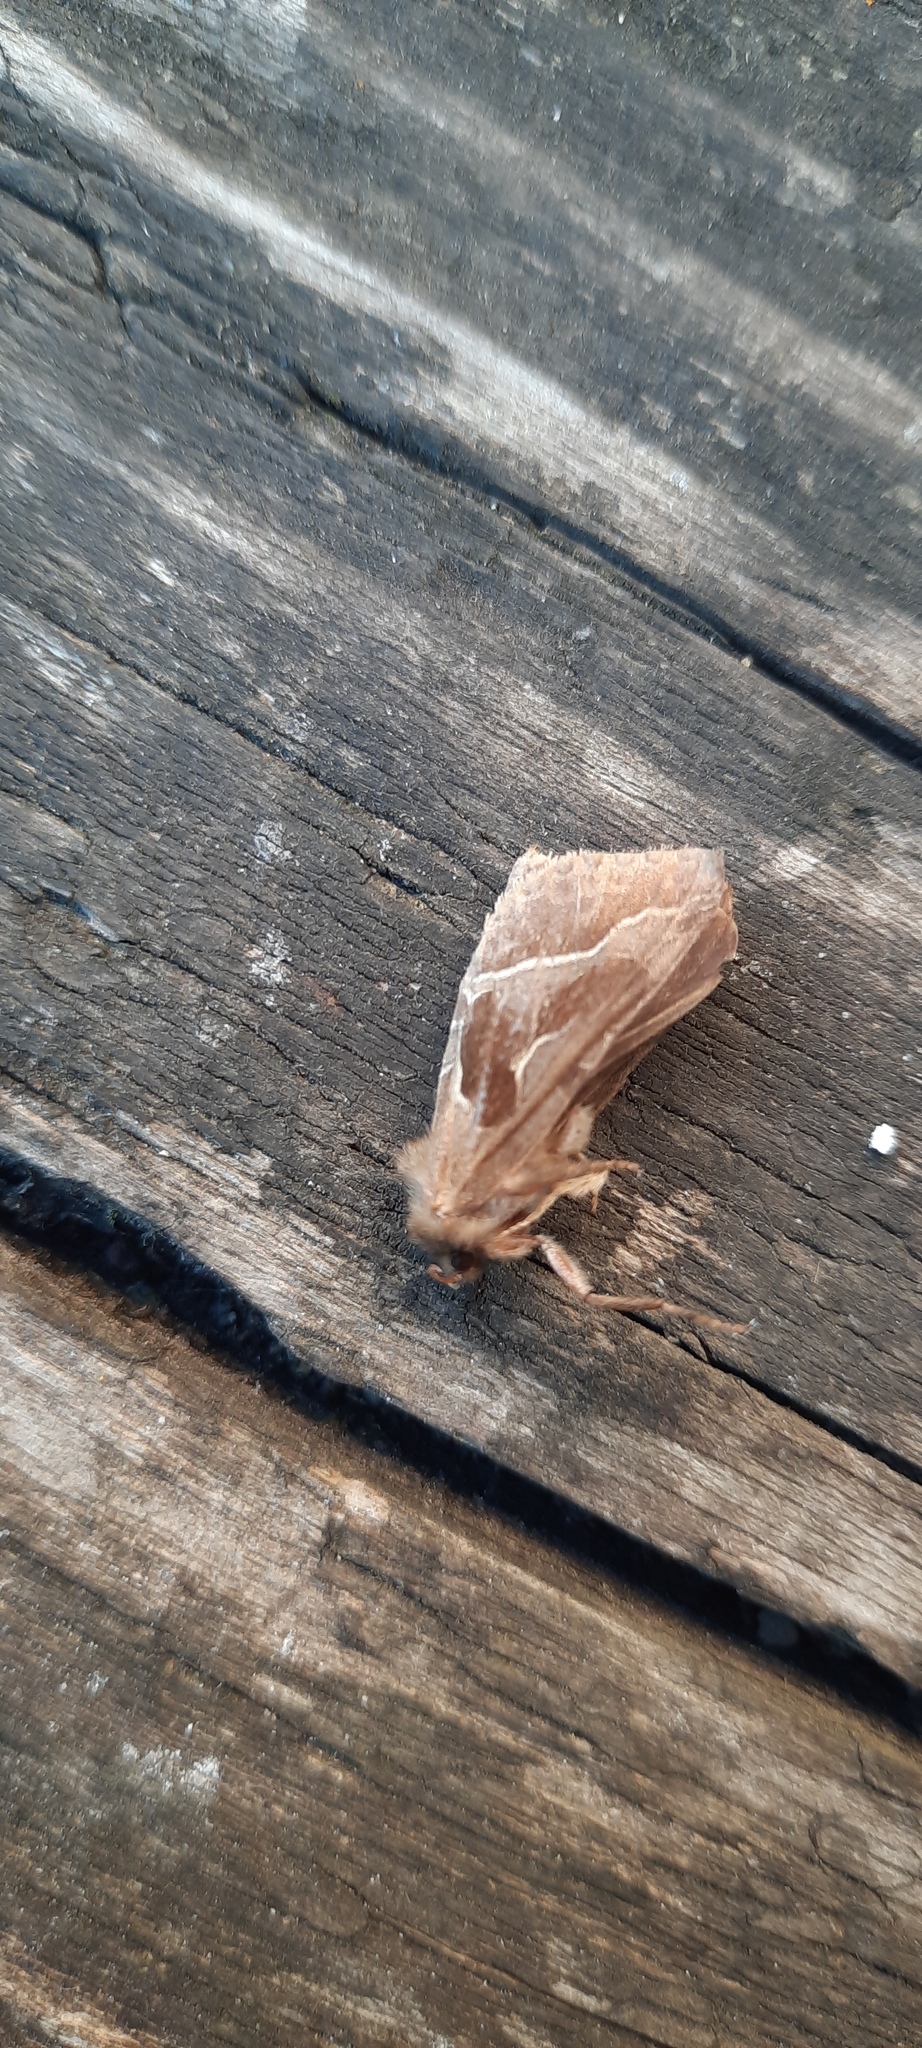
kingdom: Animalia
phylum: Arthropoda
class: Insecta
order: Lepidoptera
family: Hepialidae
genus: Triodia
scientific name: Triodia sylvina
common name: Orange swift
